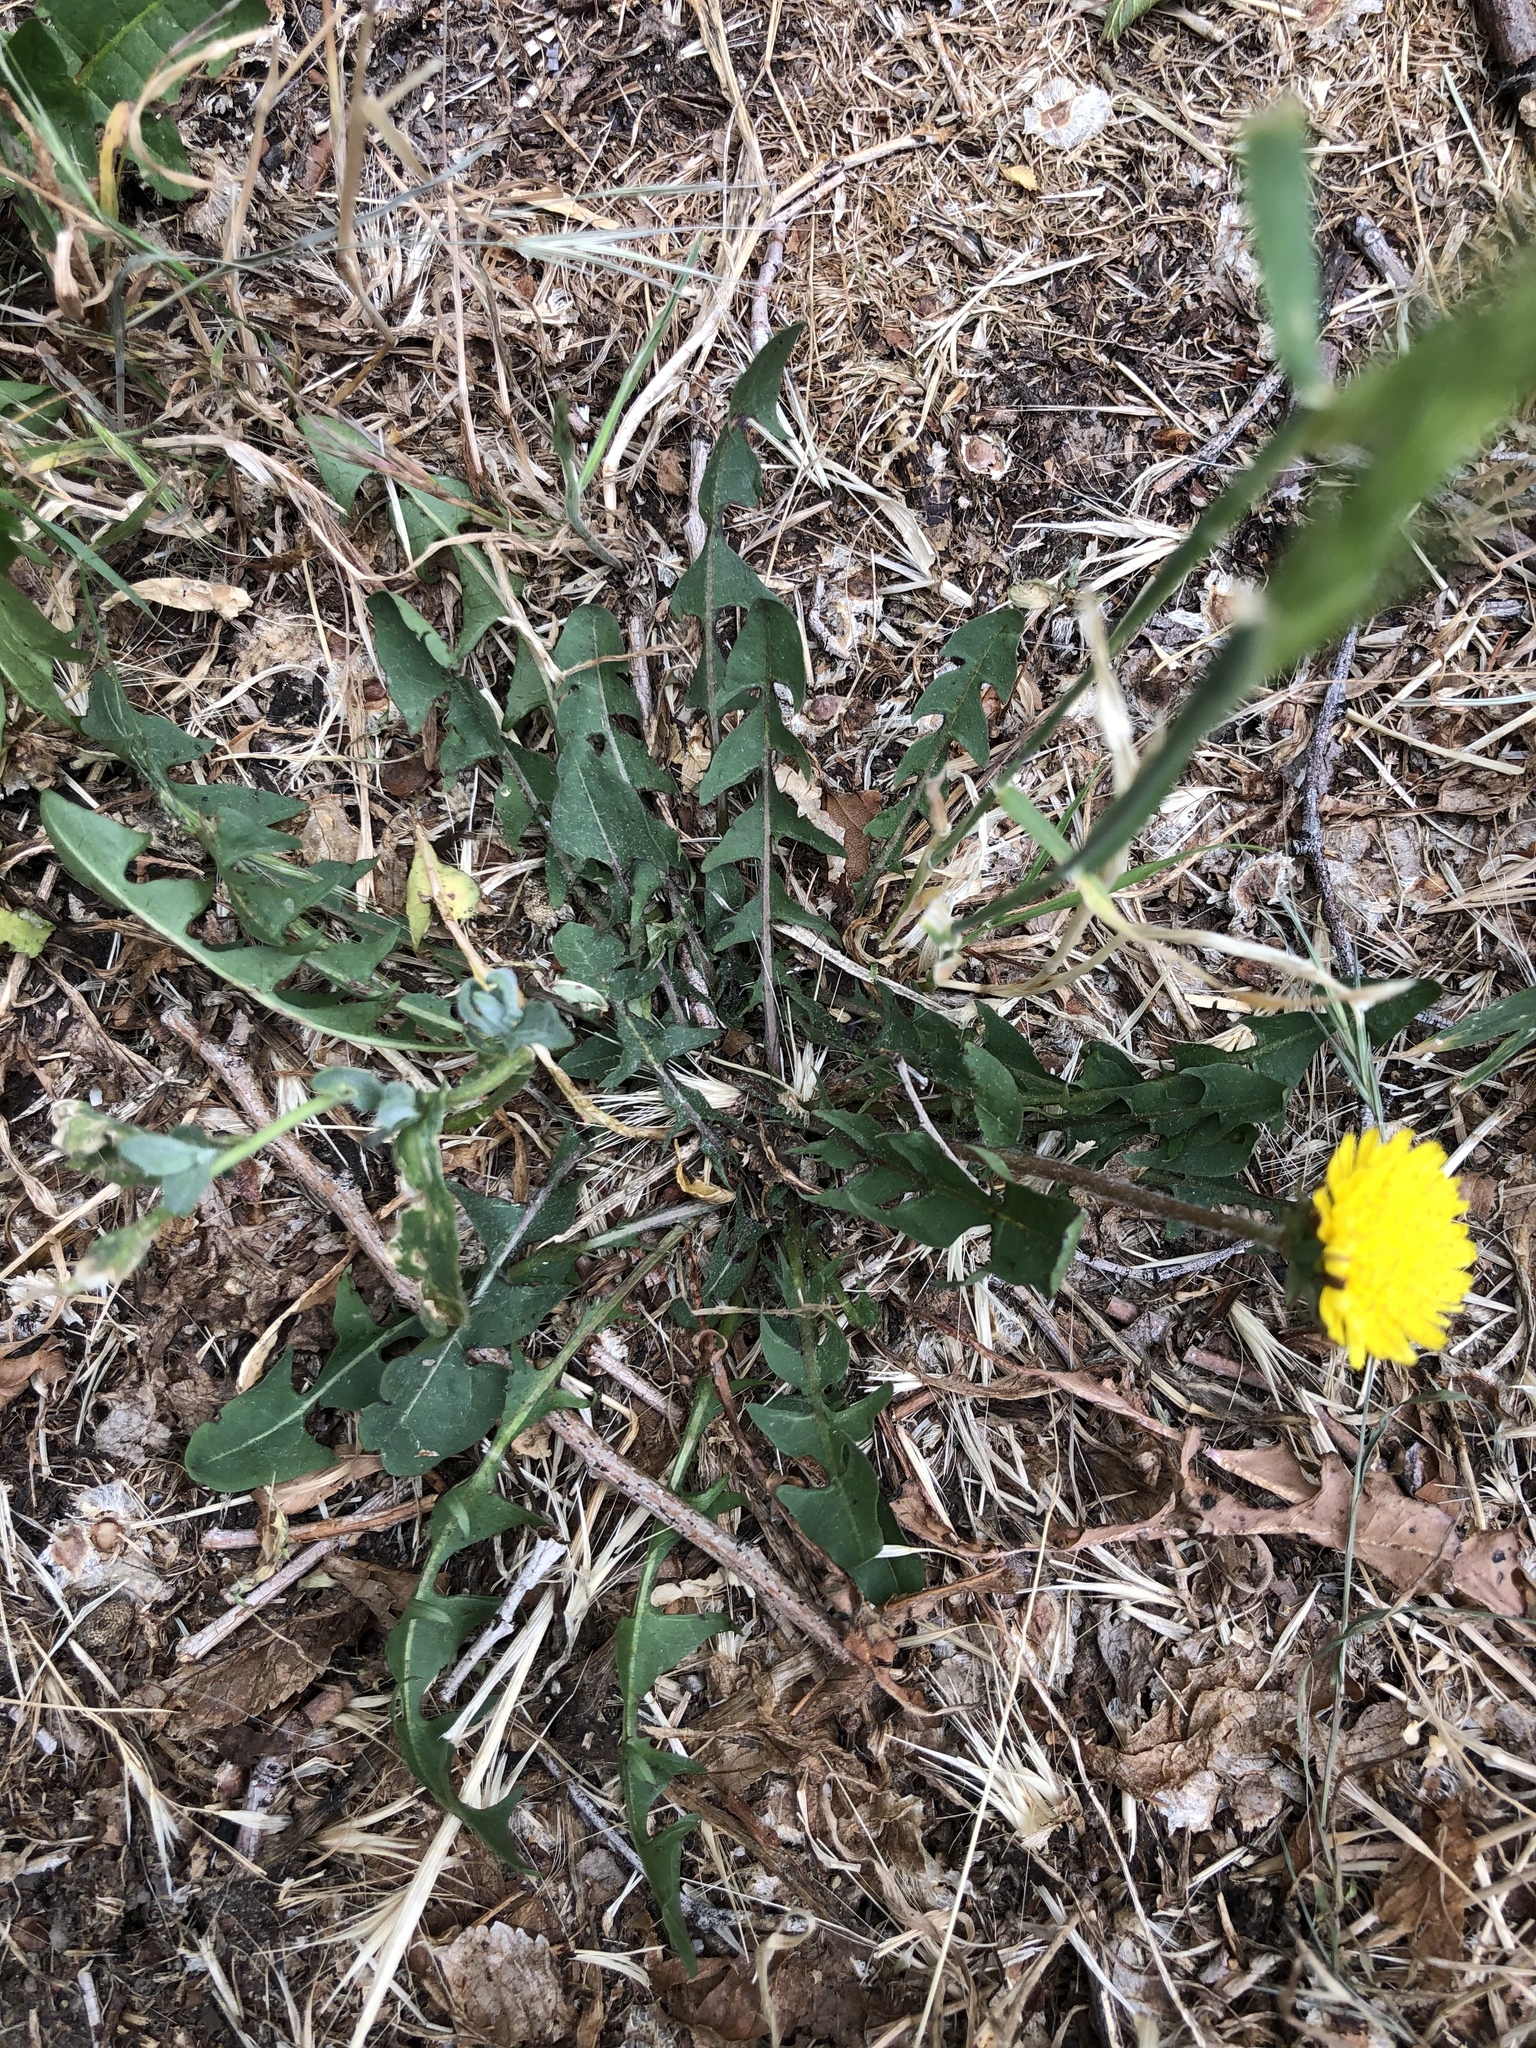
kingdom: Plantae
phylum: Tracheophyta
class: Magnoliopsida
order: Asterales
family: Asteraceae
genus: Taraxacum
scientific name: Taraxacum officinale
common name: Common dandelion
